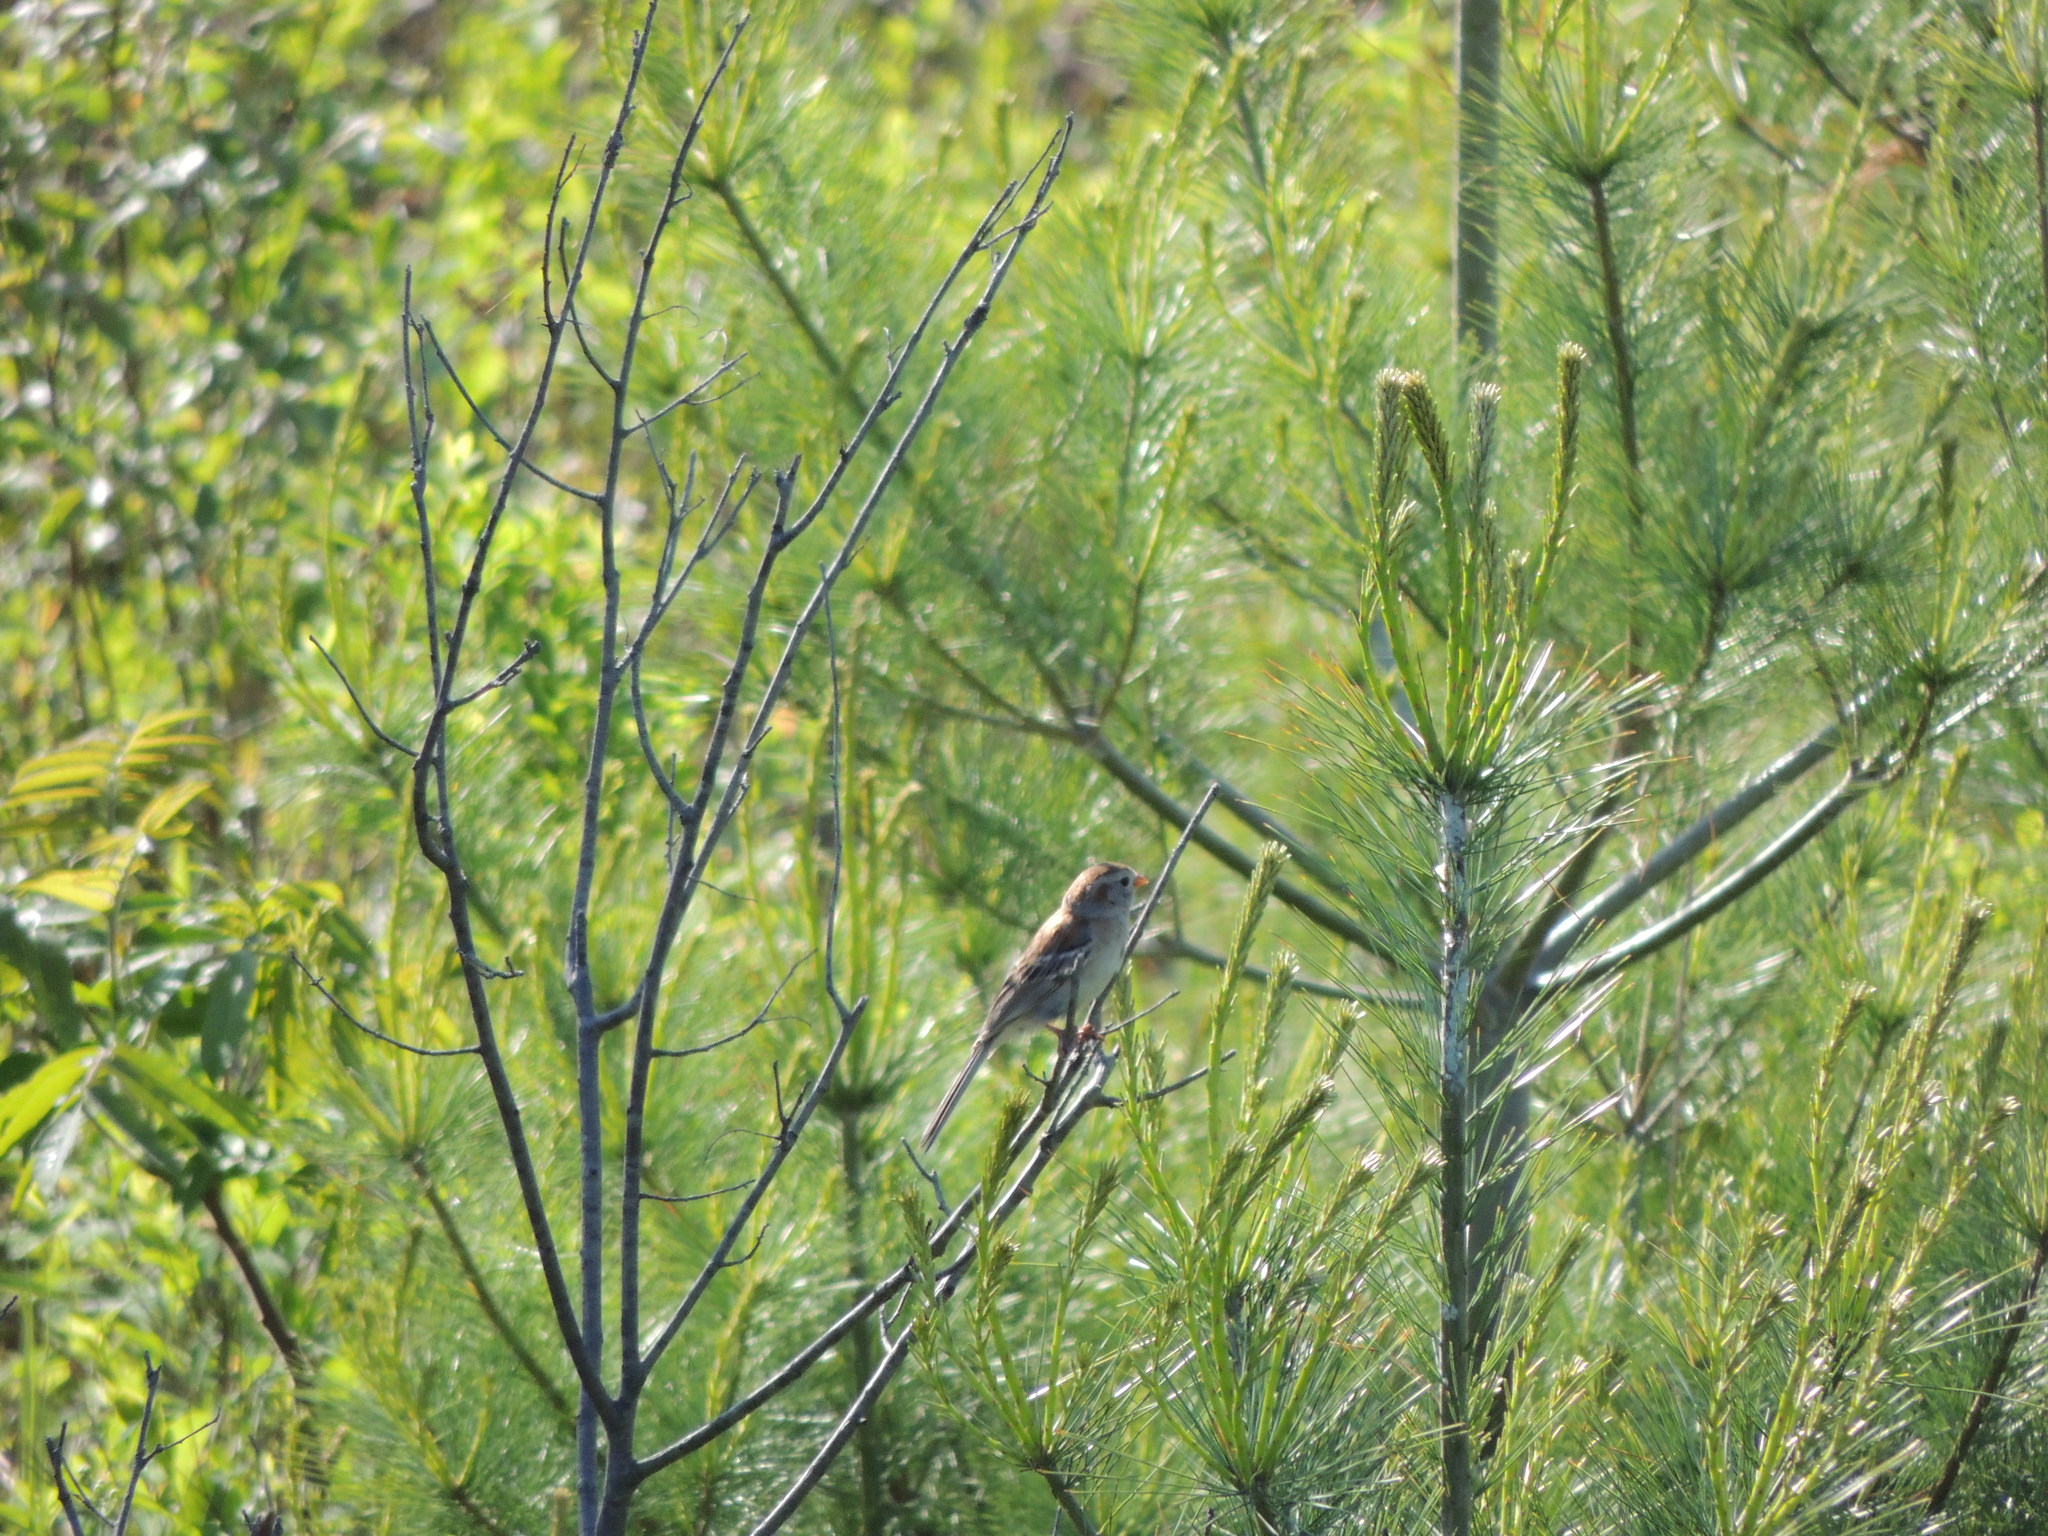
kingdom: Animalia
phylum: Chordata
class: Aves
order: Passeriformes
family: Passerellidae
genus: Spizella
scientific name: Spizella pusilla
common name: Field sparrow
